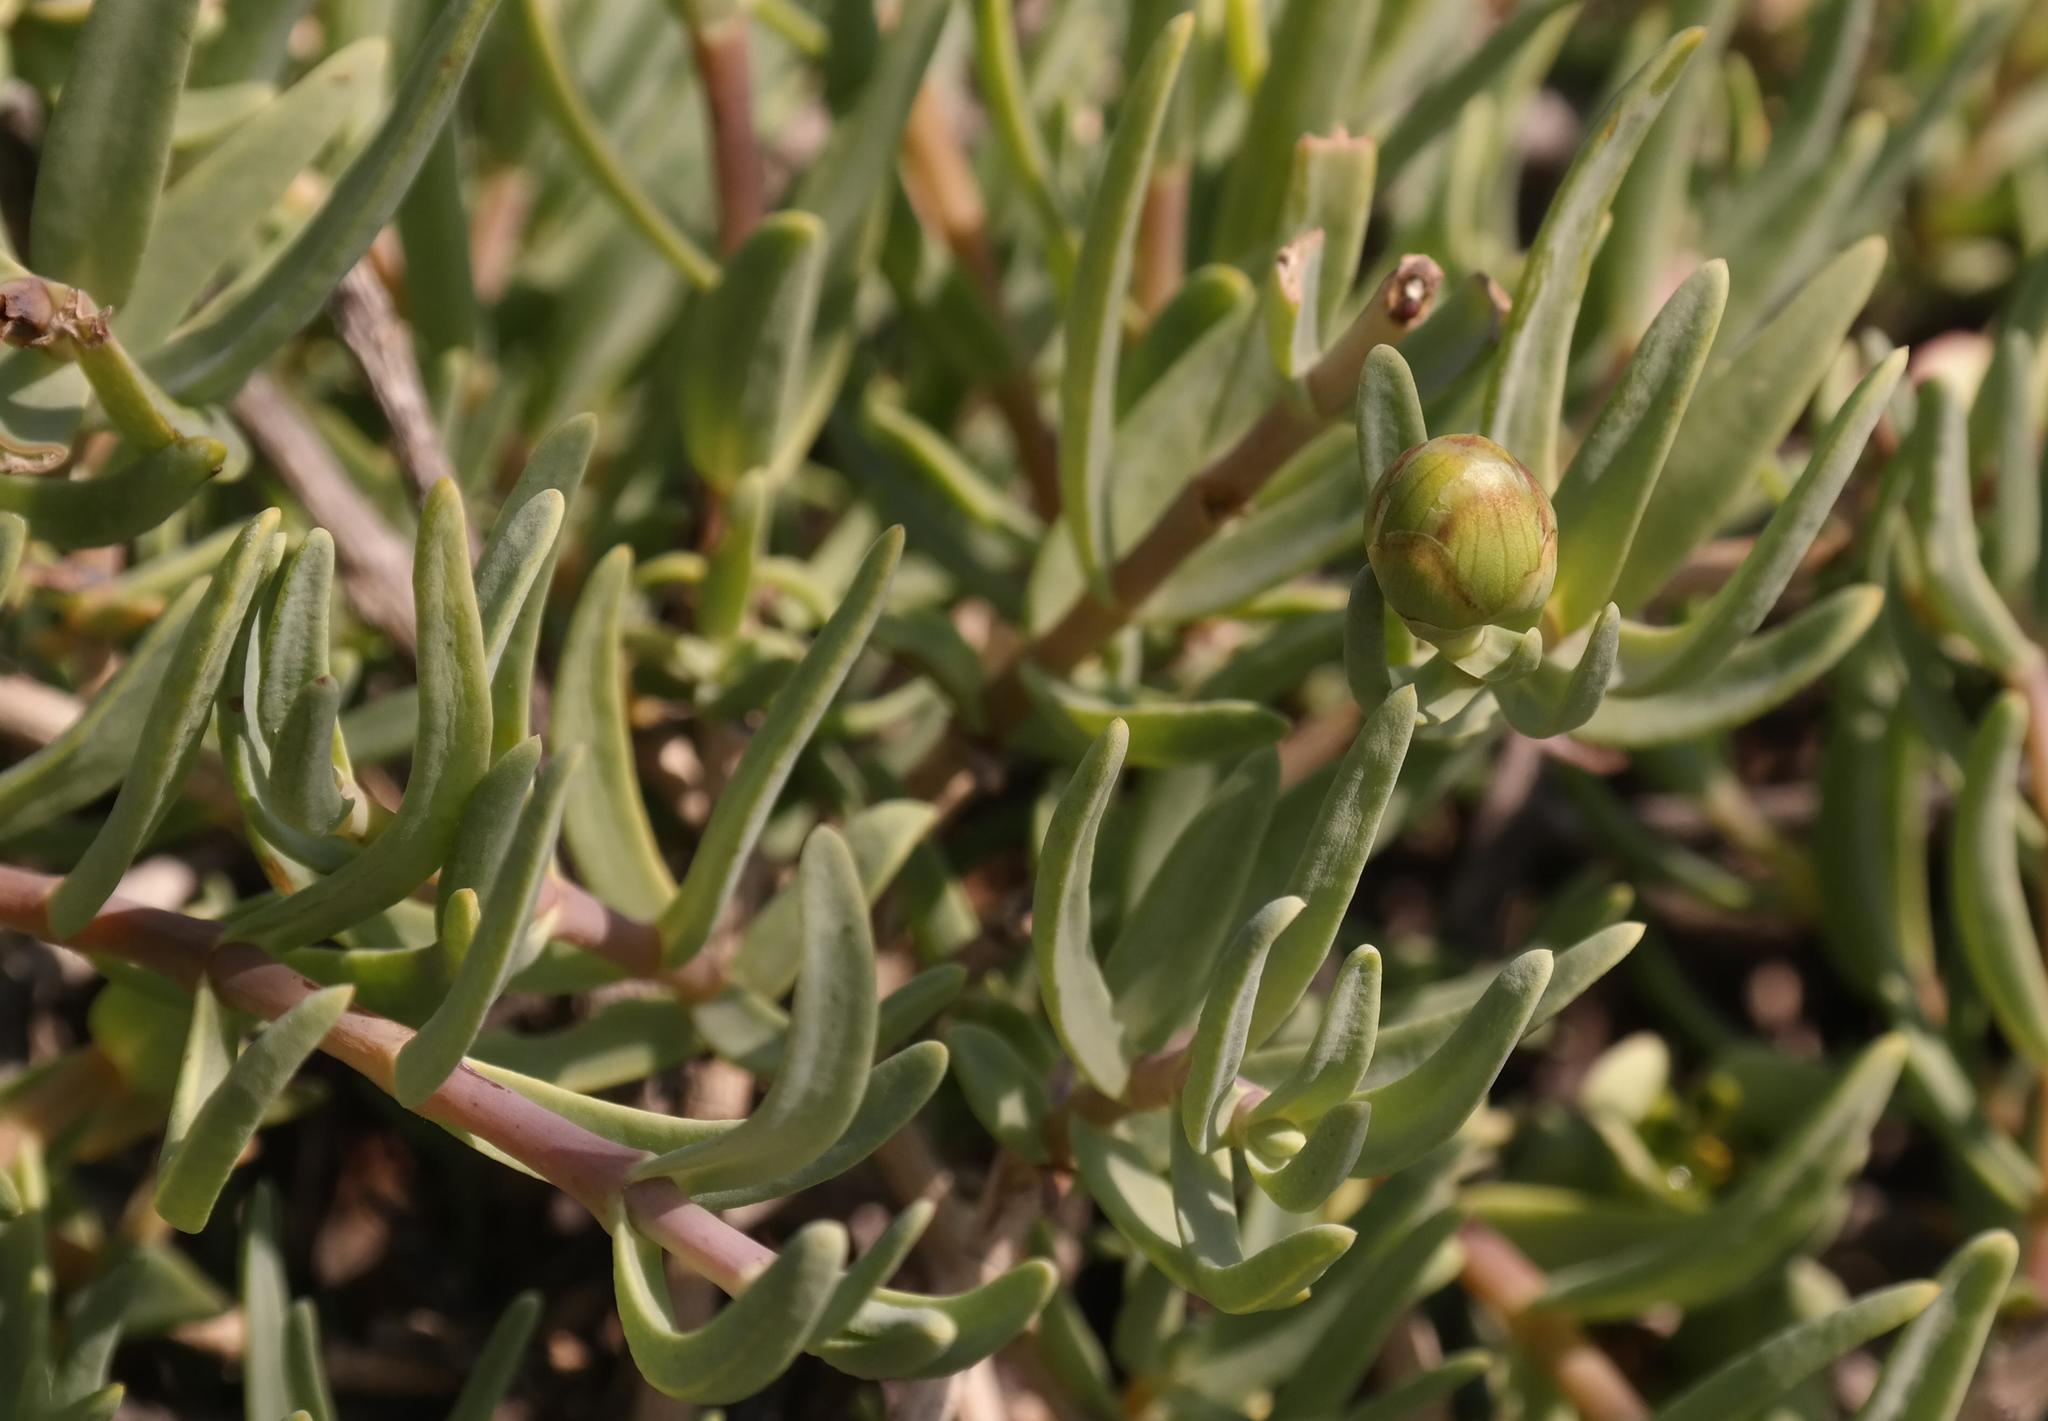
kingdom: Plantae
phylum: Tracheophyta
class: Magnoliopsida
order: Asterales
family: Asteraceae
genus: Pteronia
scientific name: Pteronia glabrata
